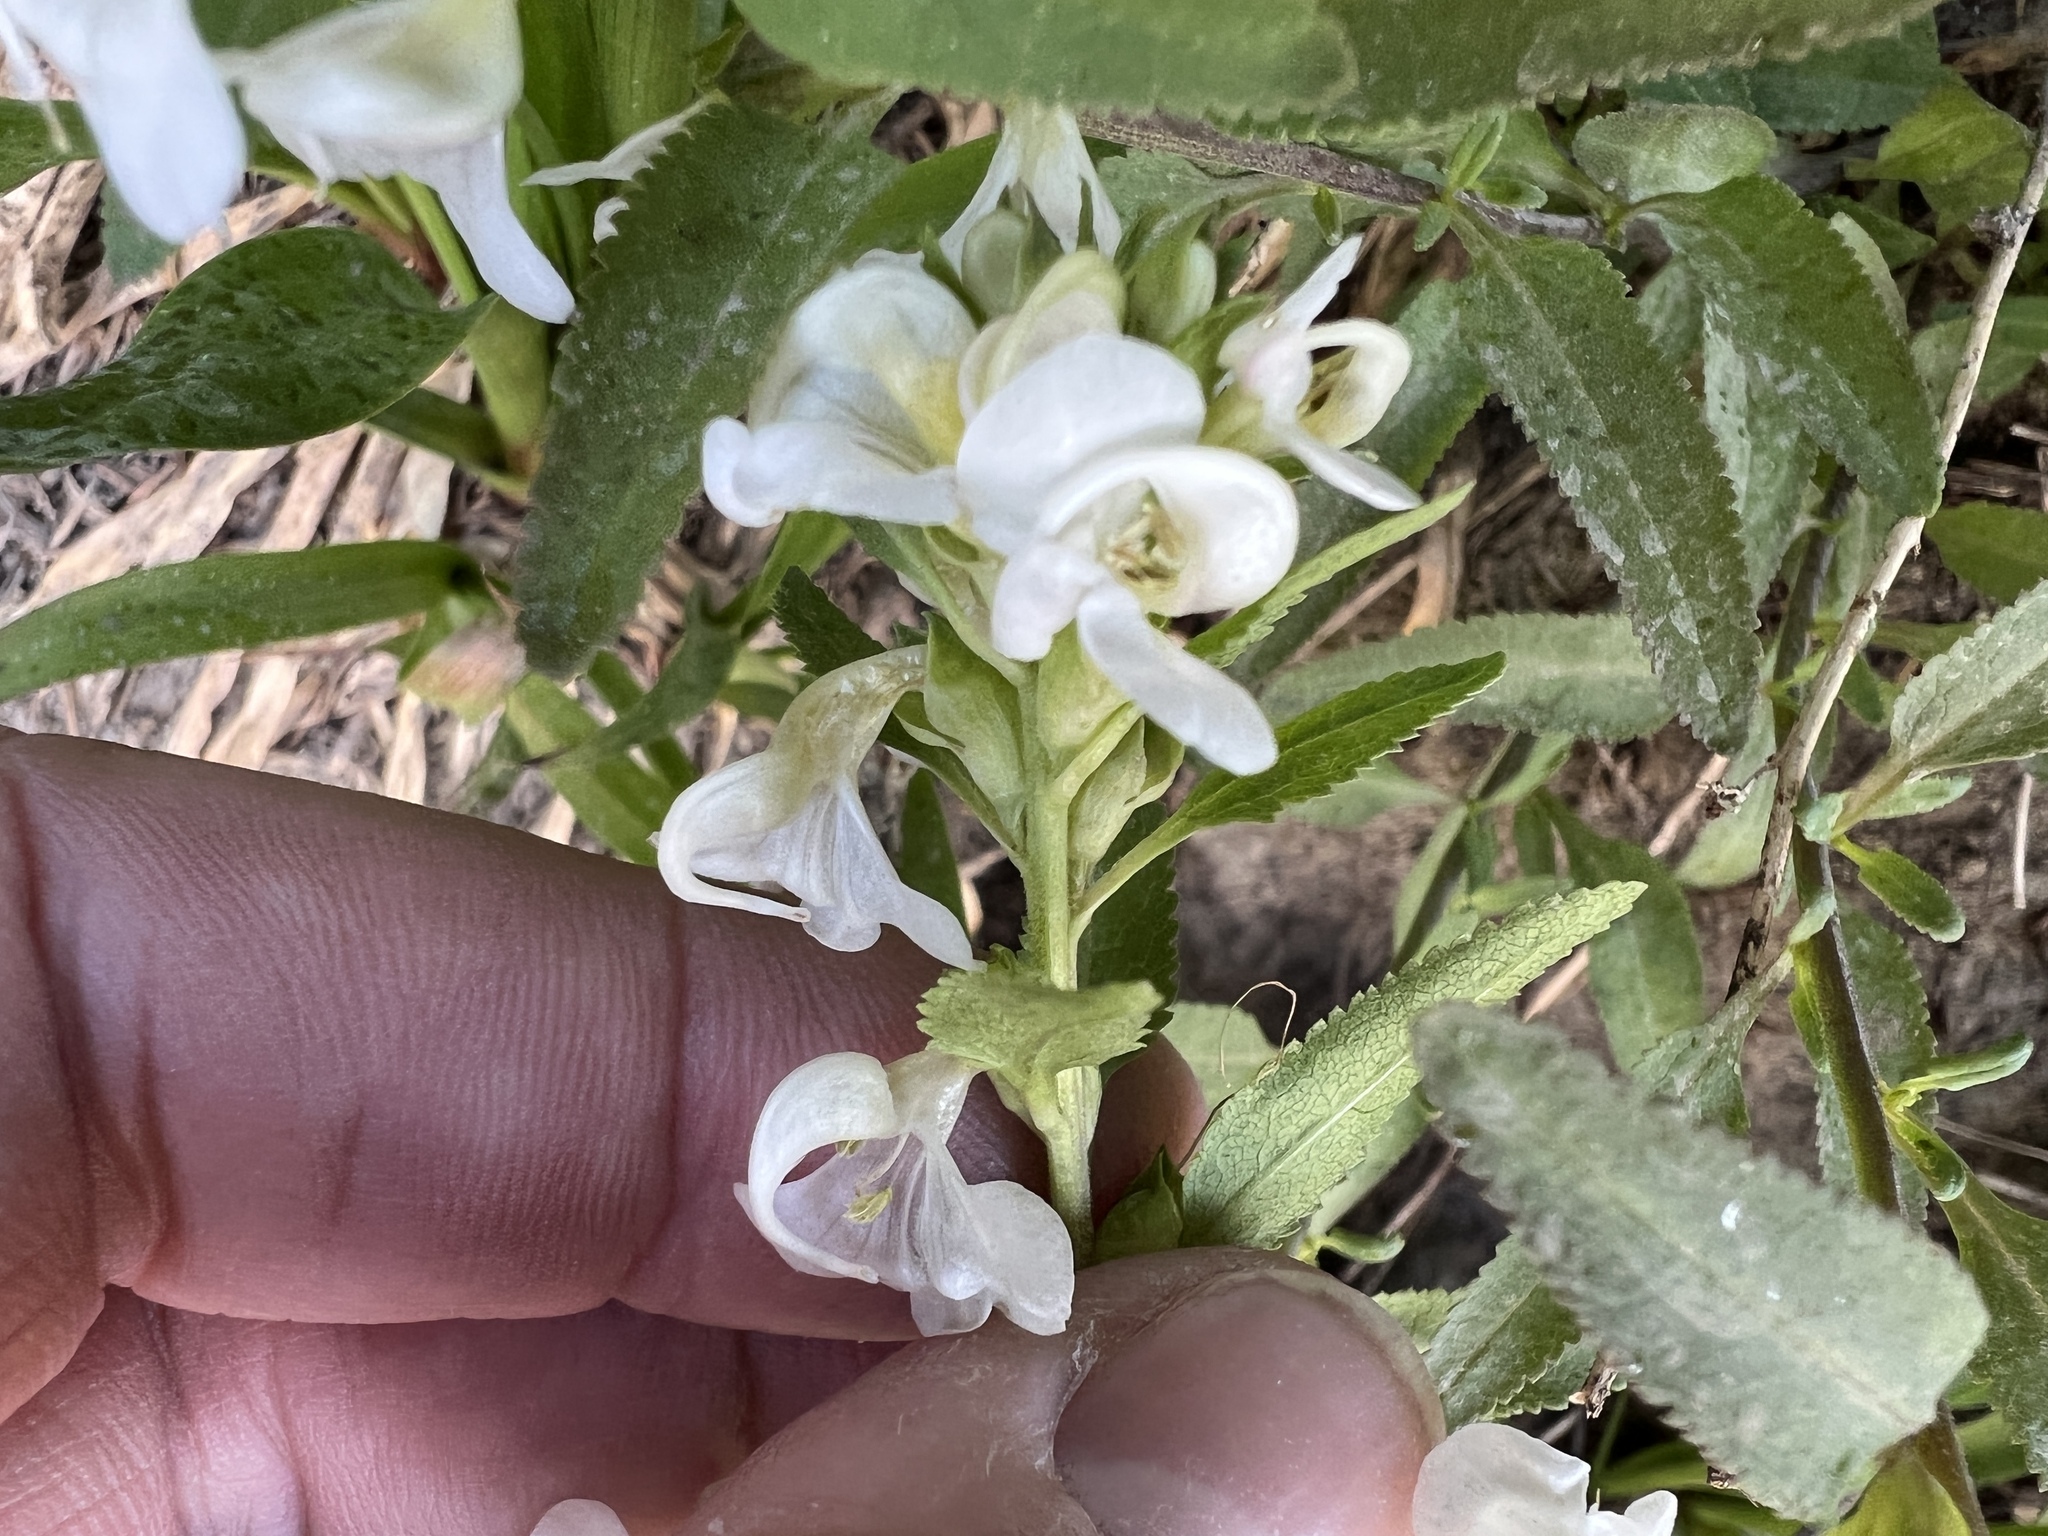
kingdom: Plantae
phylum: Tracheophyta
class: Magnoliopsida
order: Lamiales
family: Orobanchaceae
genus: Pedicularis
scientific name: Pedicularis racemosa
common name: Leafy lousewort
